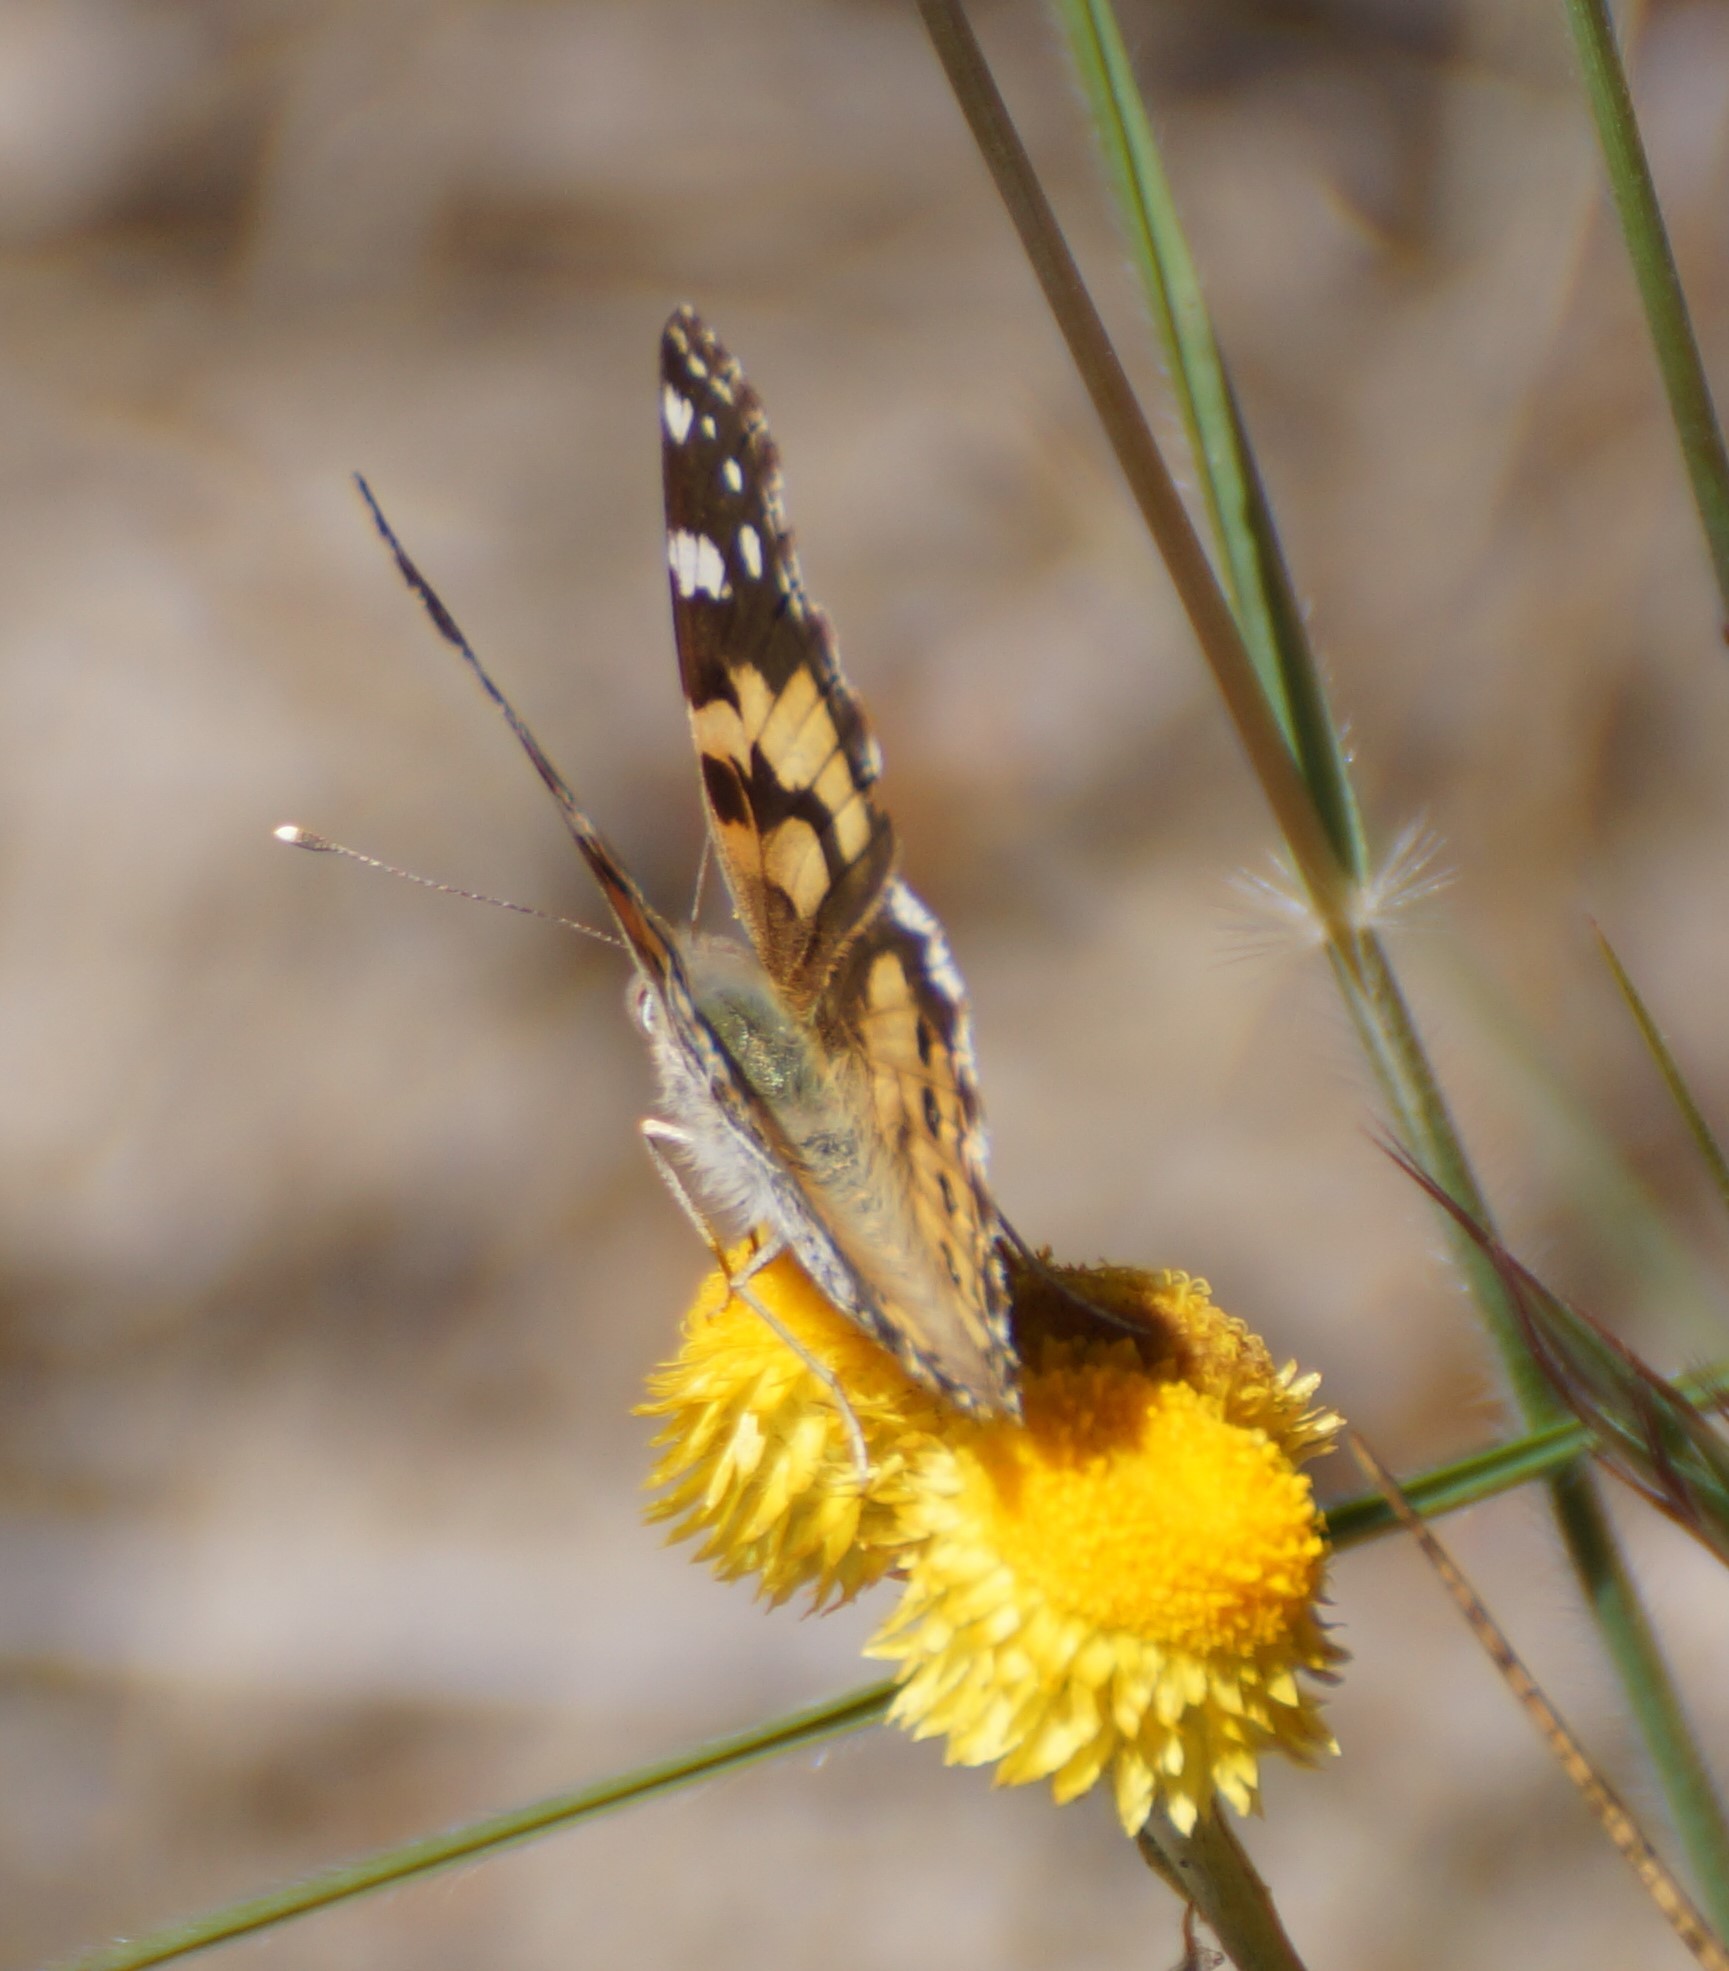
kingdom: Animalia
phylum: Arthropoda
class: Insecta
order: Lepidoptera
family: Nymphalidae
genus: Vanessa
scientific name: Vanessa kershawi
